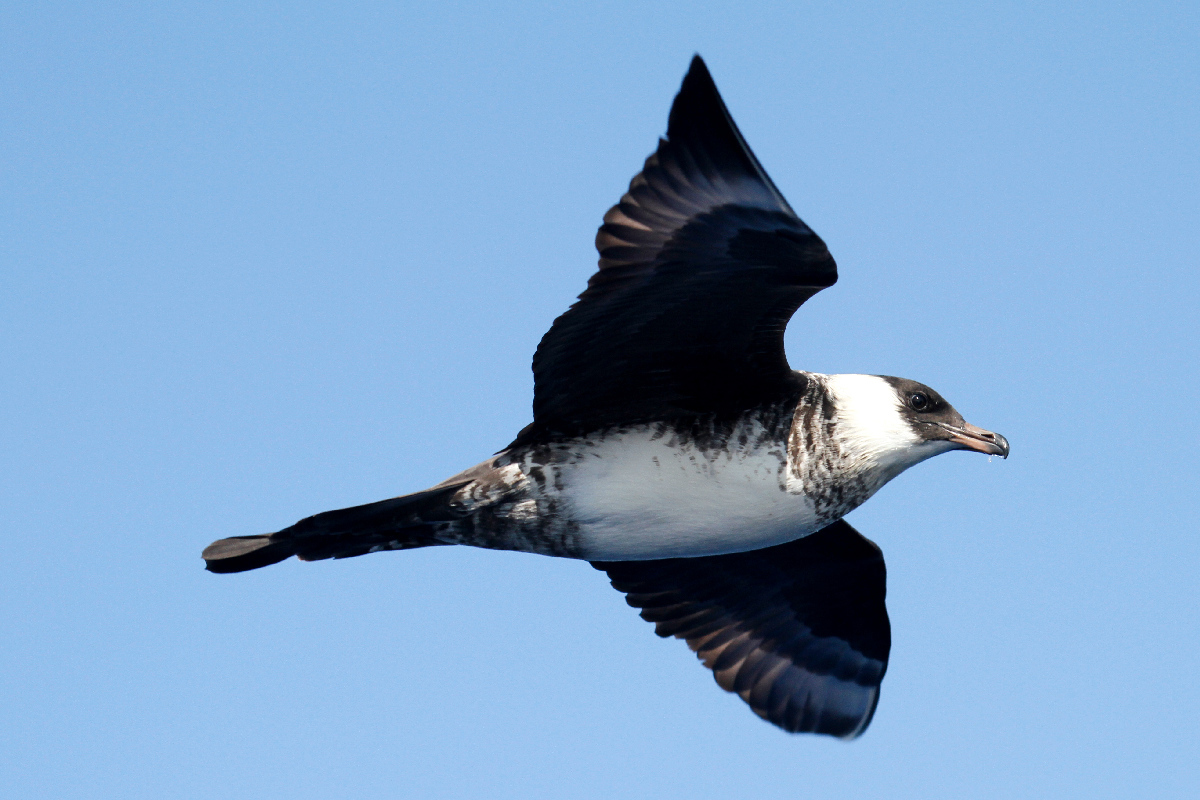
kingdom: Animalia
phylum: Chordata
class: Aves
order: Charadriiformes
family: Stercorariidae
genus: Stercorarius
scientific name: Stercorarius pomarinus
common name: Pomarine jaeger
